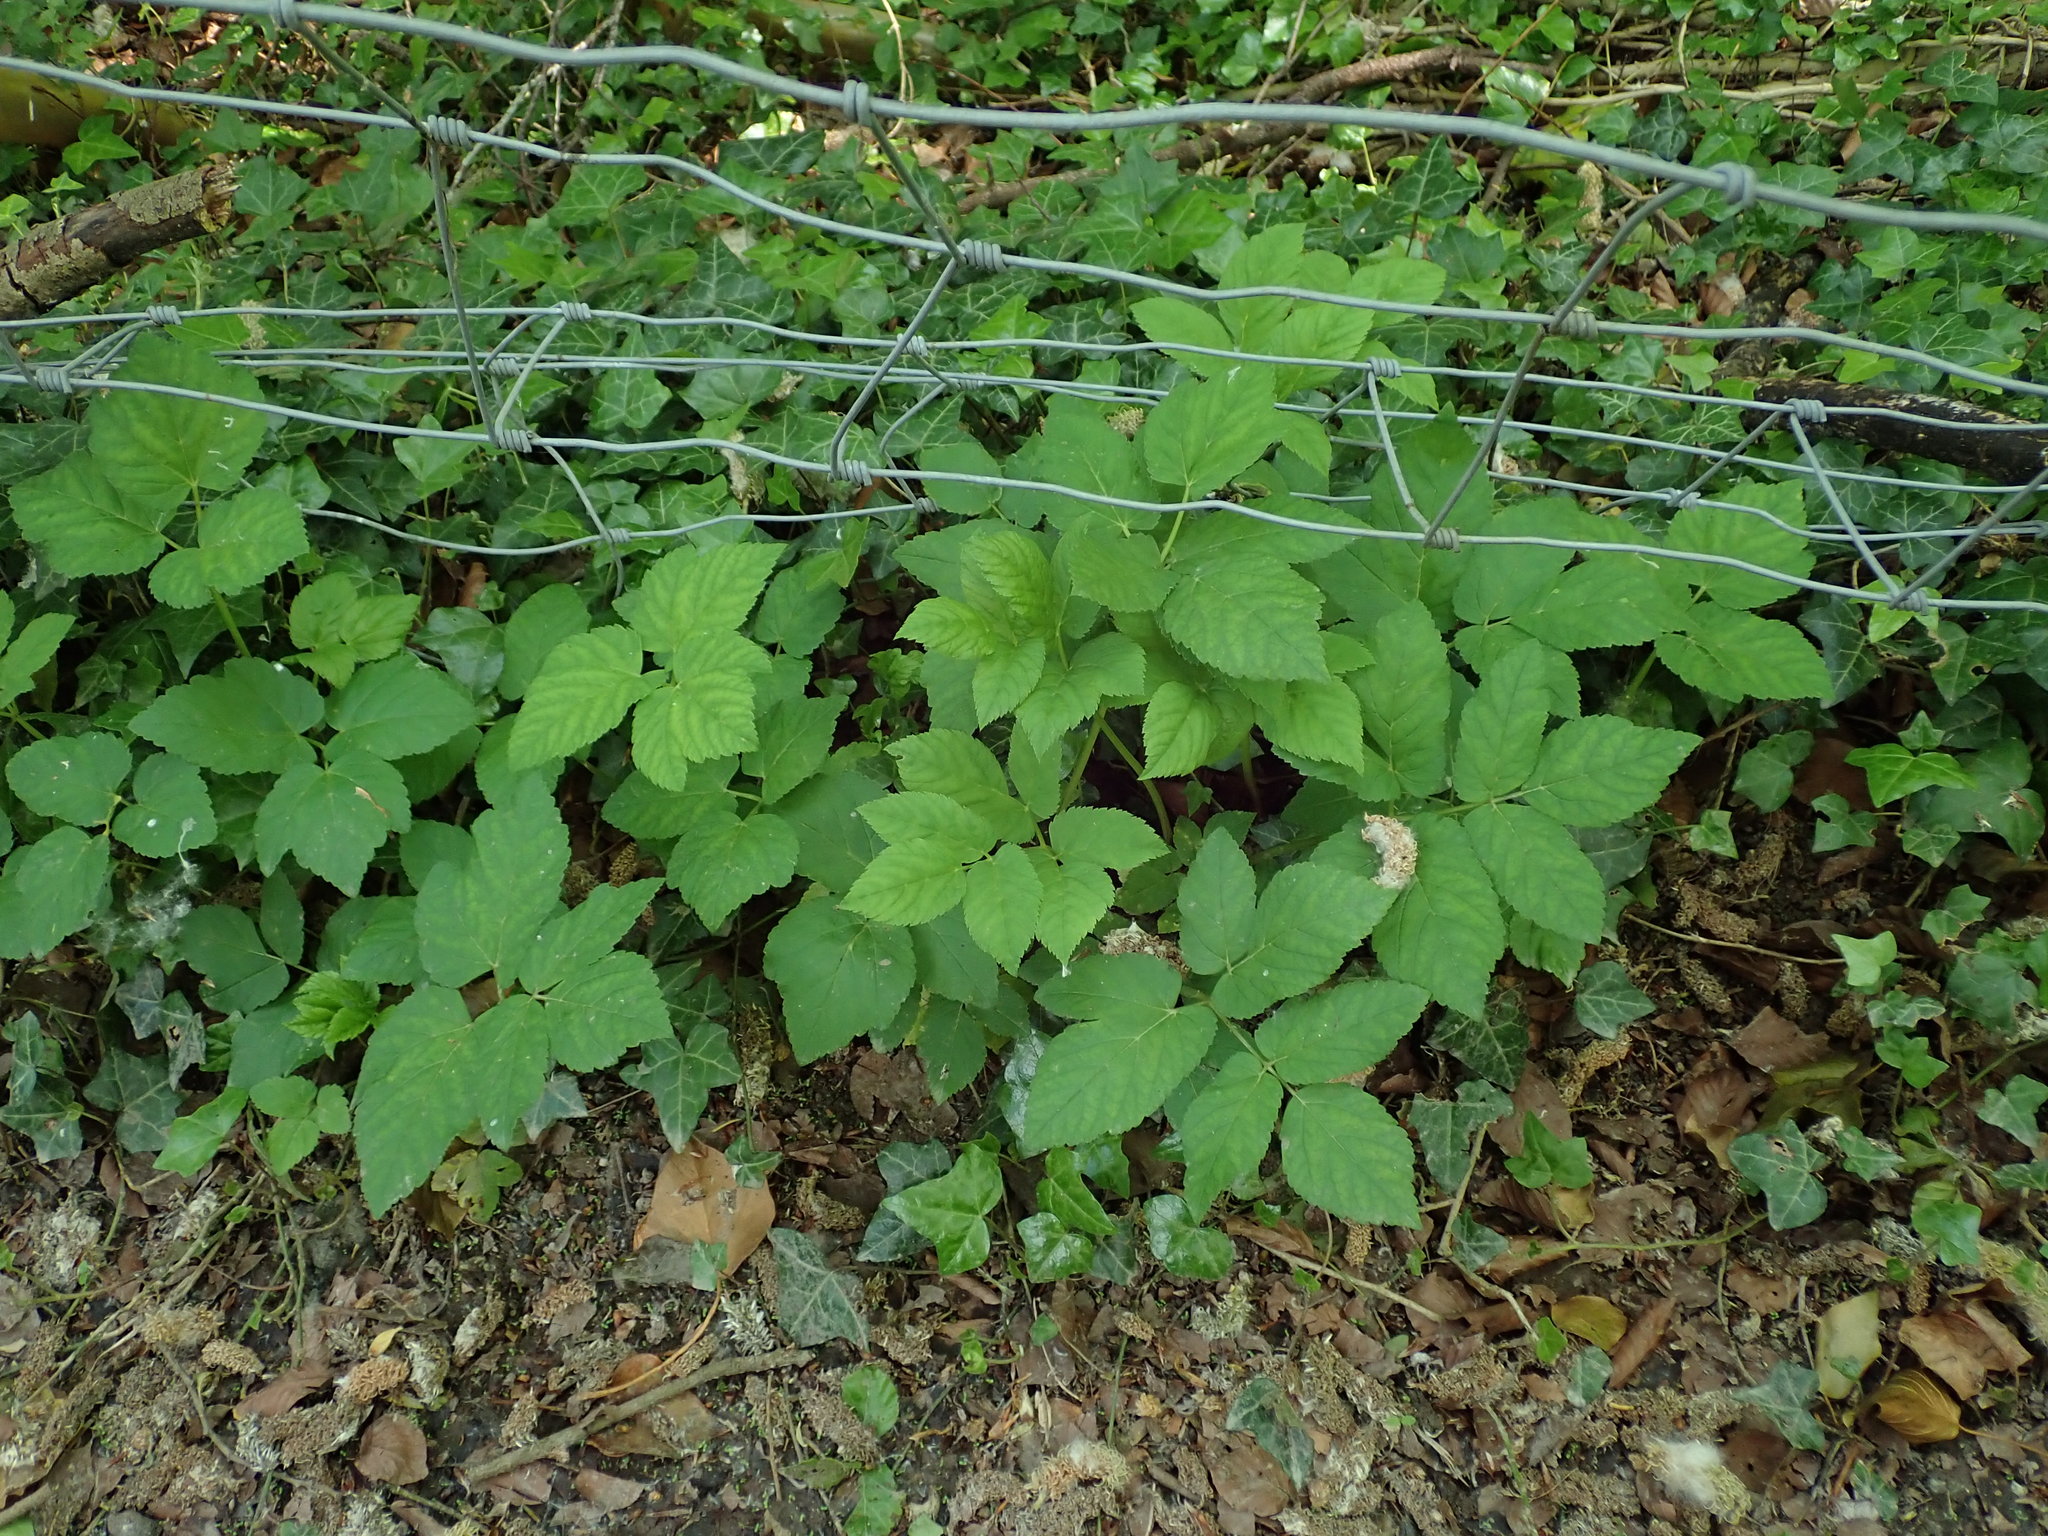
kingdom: Plantae
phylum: Tracheophyta
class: Magnoliopsida
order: Apiales
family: Apiaceae
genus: Aegopodium
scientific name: Aegopodium podagraria
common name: Ground-elder
